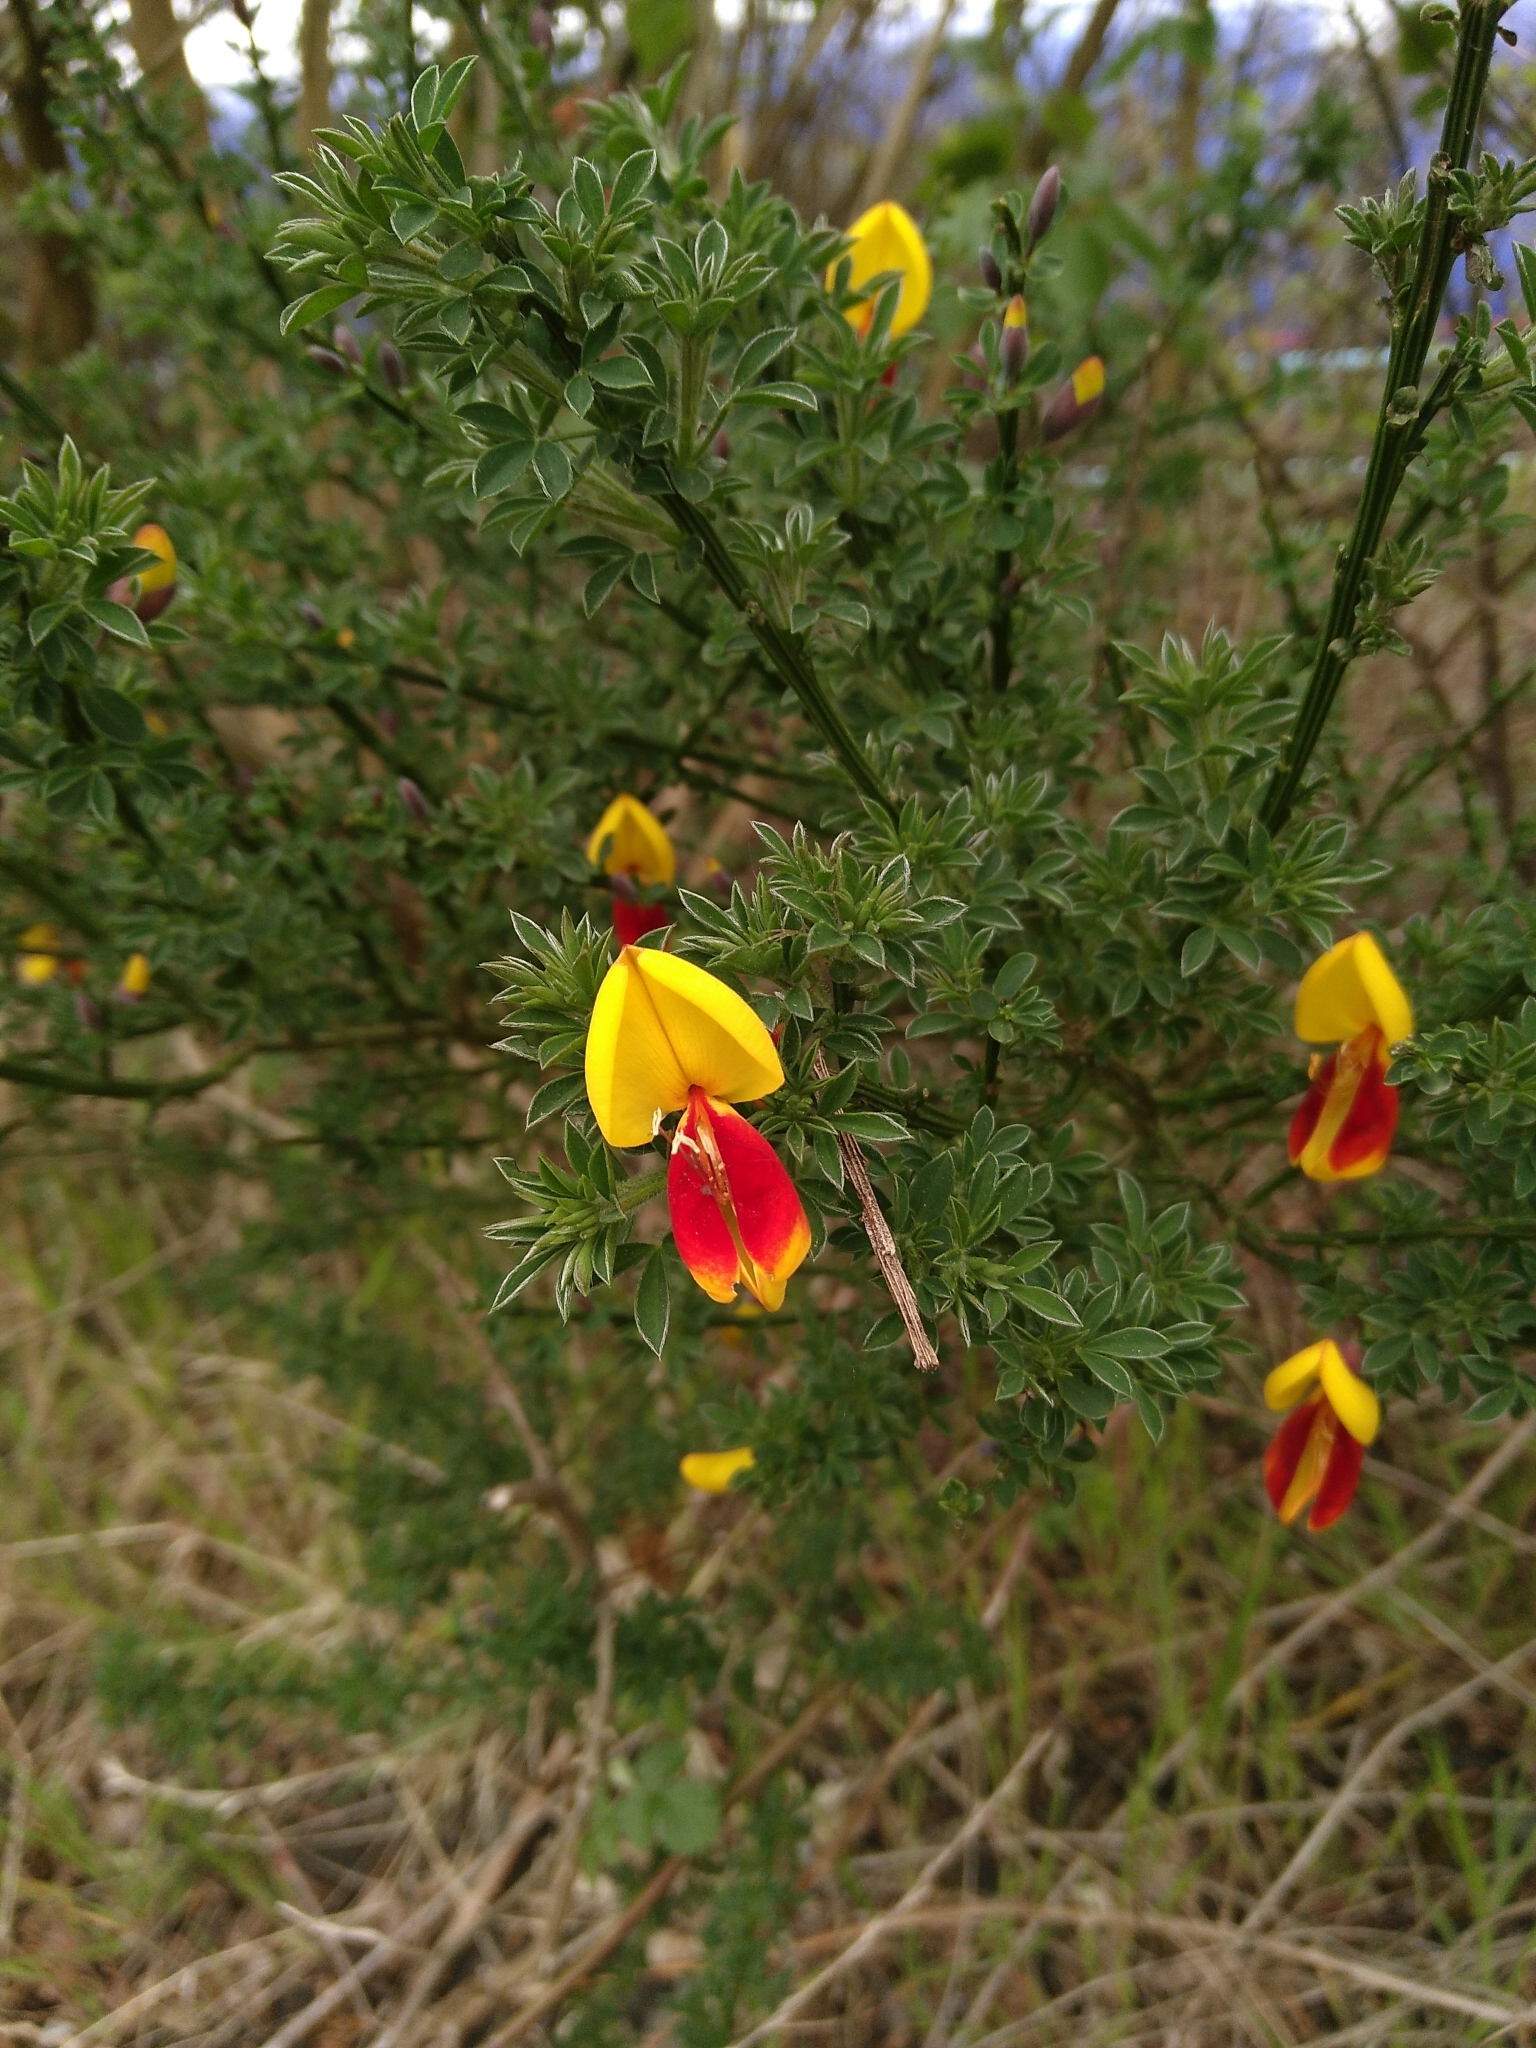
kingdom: Plantae
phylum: Tracheophyta
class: Magnoliopsida
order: Fabales
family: Fabaceae
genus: Cytisus
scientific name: Cytisus scoparius
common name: Scotch broom
